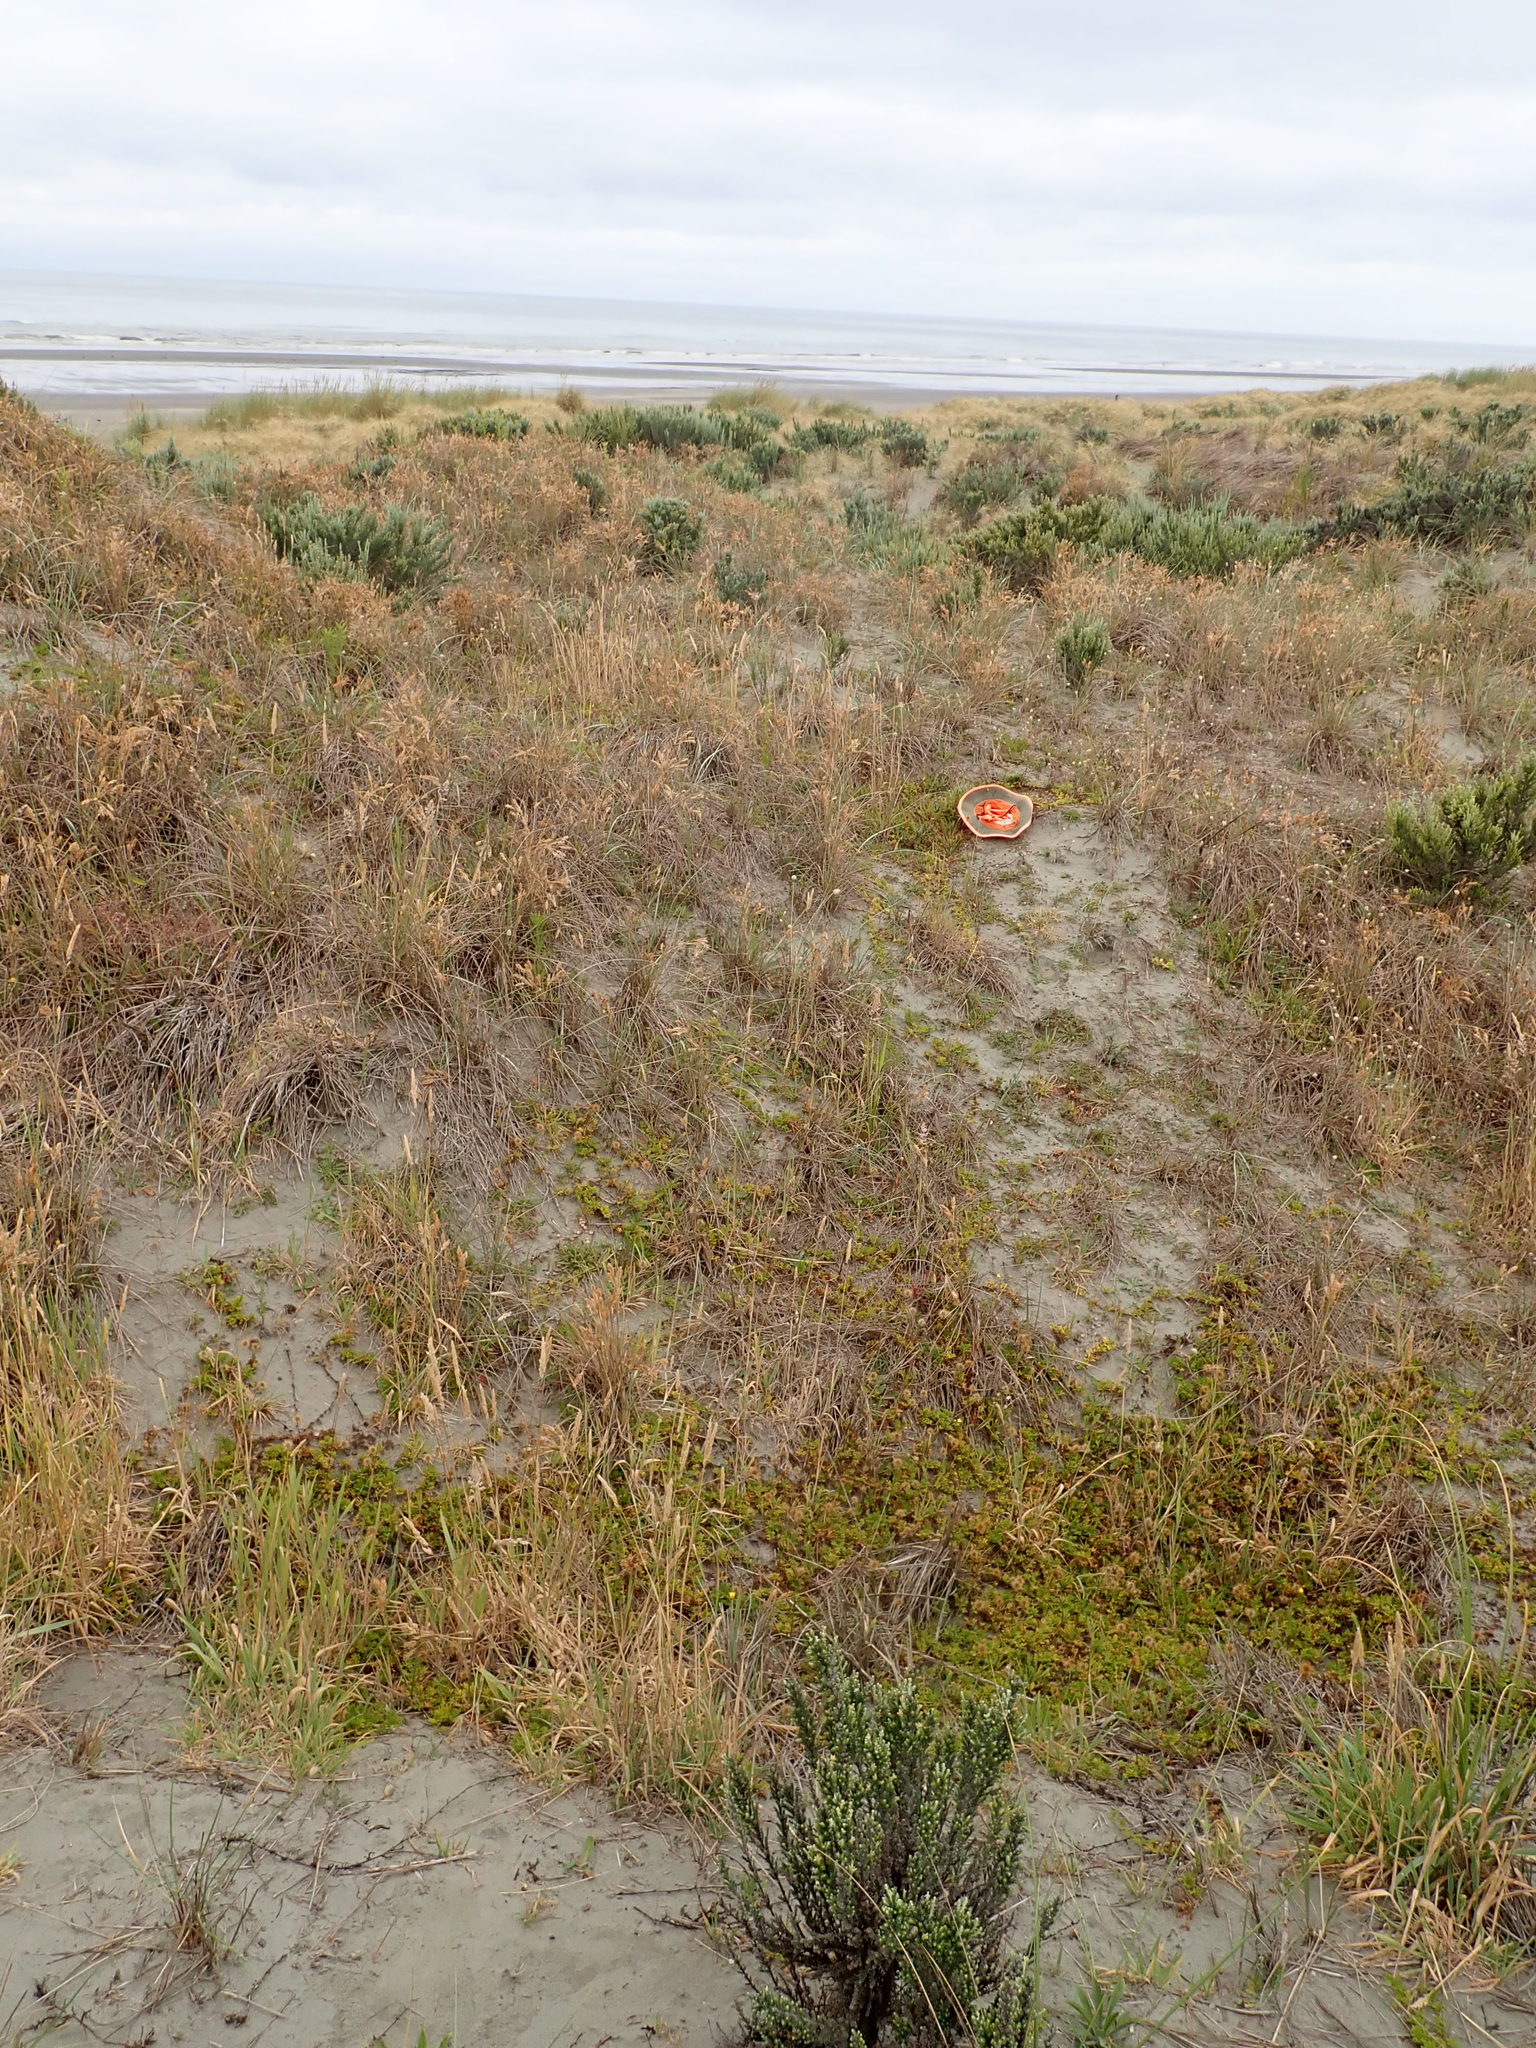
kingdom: Plantae
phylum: Tracheophyta
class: Magnoliopsida
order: Rosales
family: Rosaceae
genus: Acaena
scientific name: Acaena novae-zelandiae
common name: Pirri-pirri-bur
